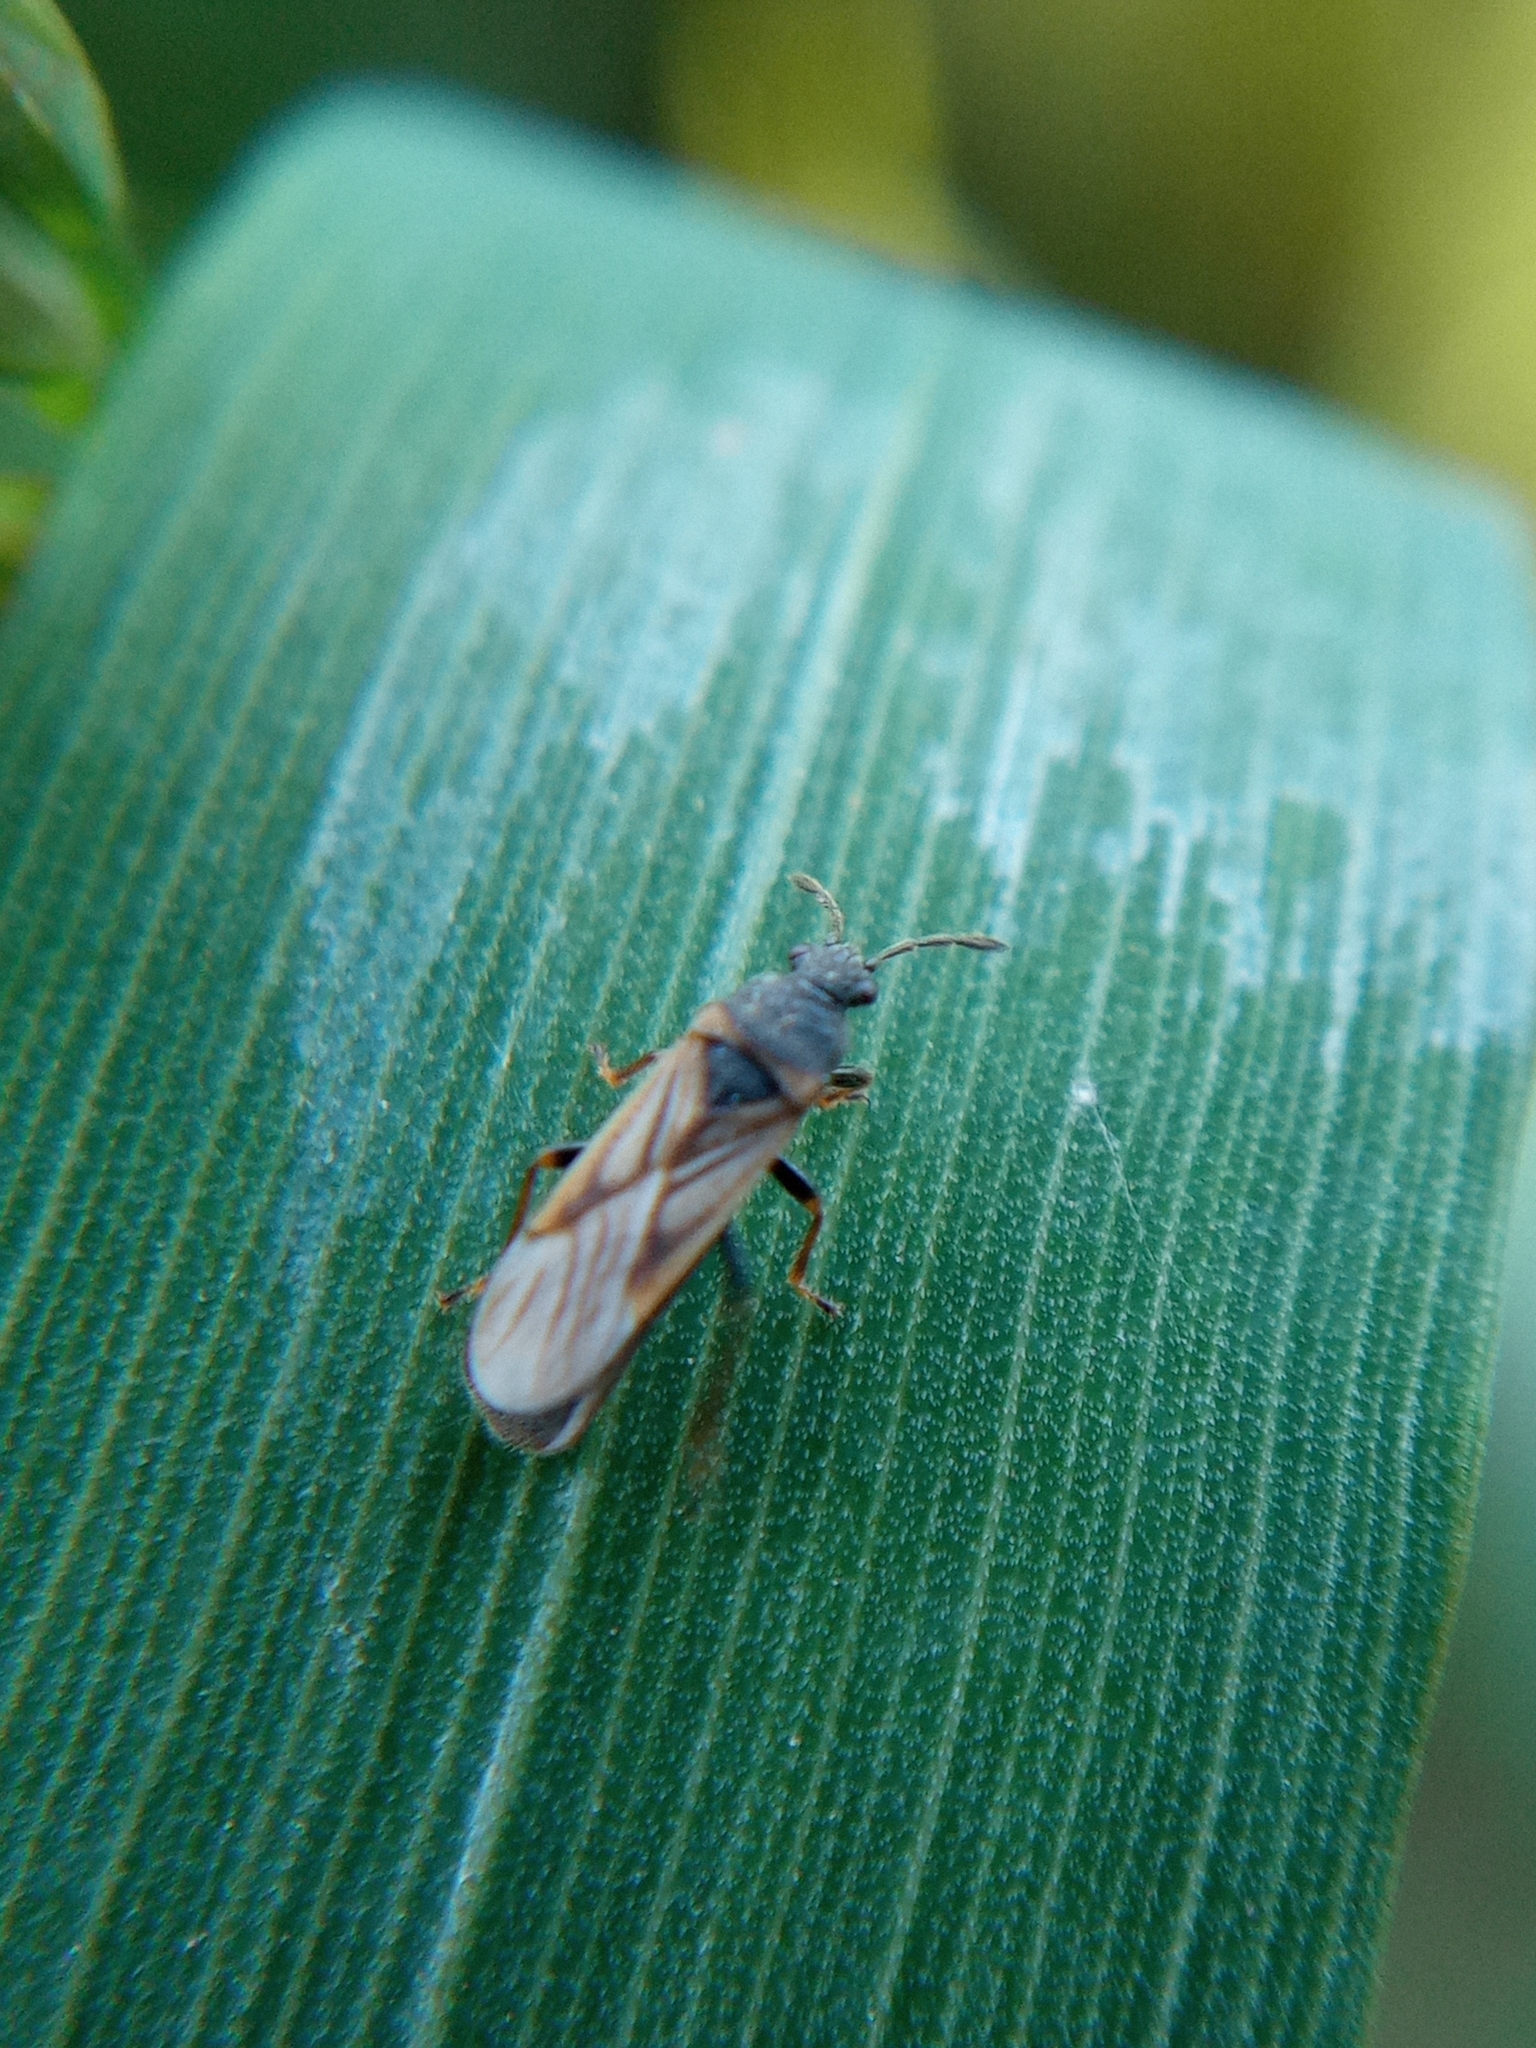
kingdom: Animalia
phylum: Arthropoda
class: Insecta
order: Hemiptera
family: Blissidae
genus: Ischnodemus
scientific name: Ischnodemus sabuleti
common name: European cinchbug
